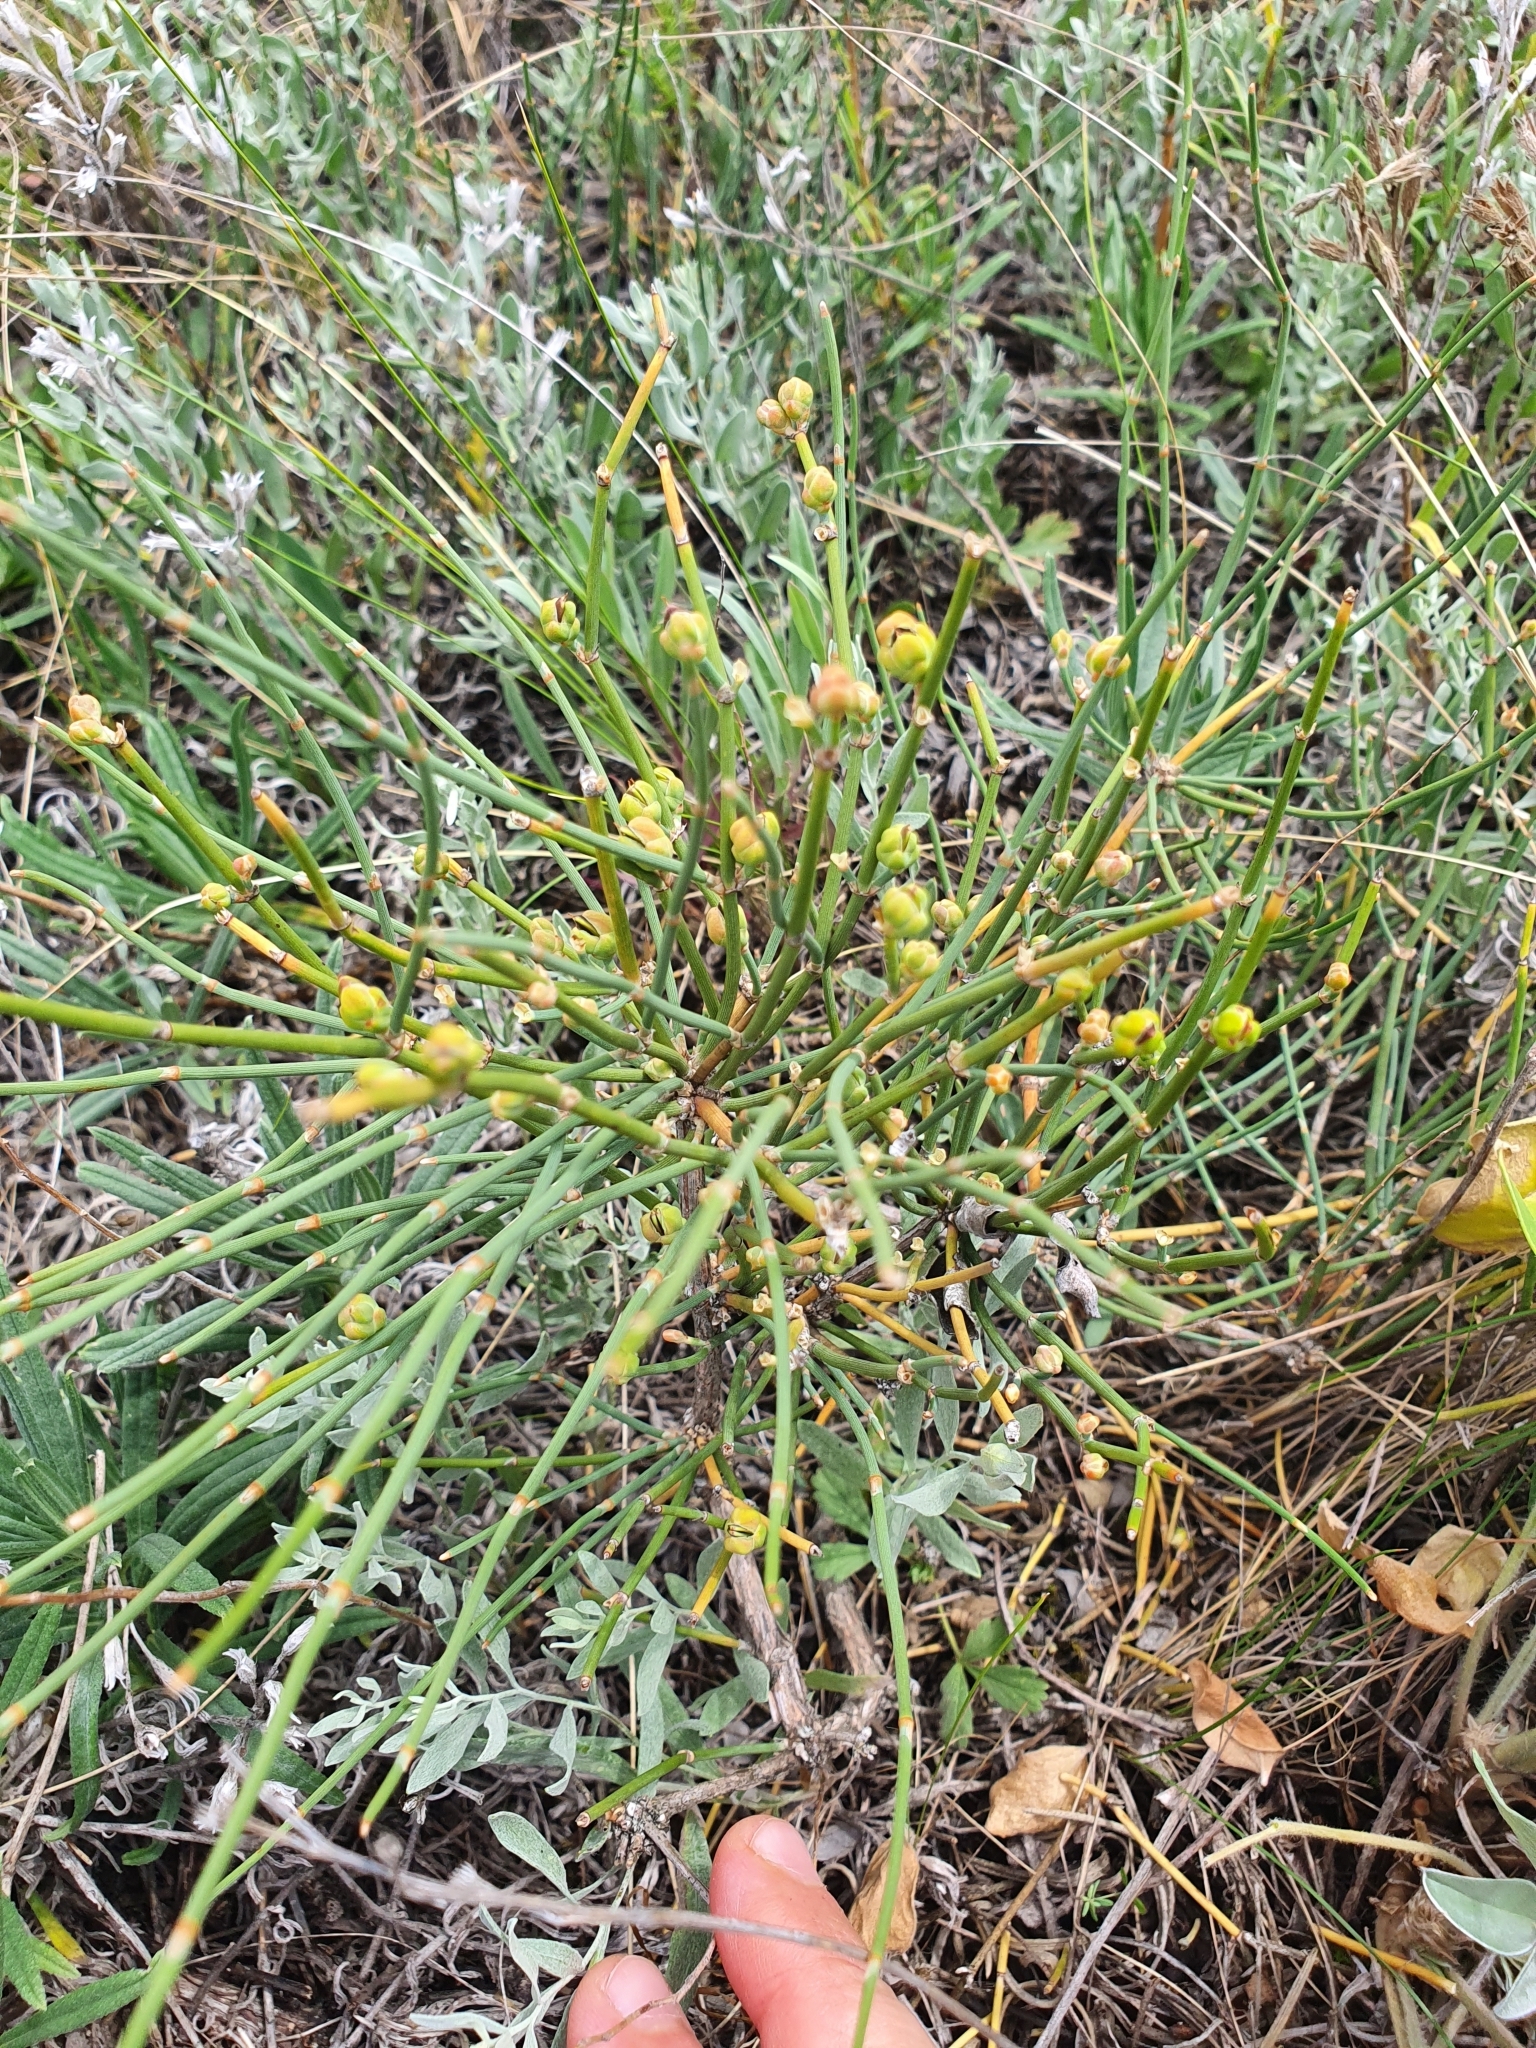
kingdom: Plantae
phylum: Tracheophyta
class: Gnetopsida
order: Ephedrales
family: Ephedraceae
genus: Ephedra
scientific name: Ephedra distachya
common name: Sea grape
